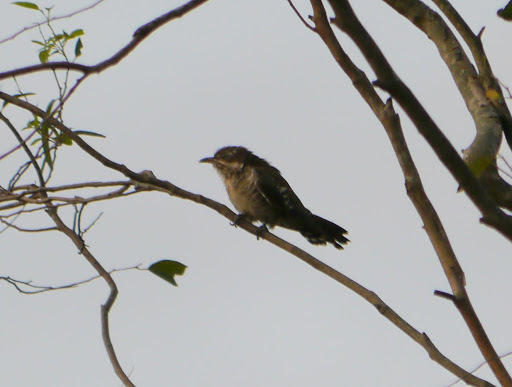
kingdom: Animalia
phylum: Chordata
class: Aves
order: Cuculiformes
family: Cuculidae
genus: Chrysococcyx
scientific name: Chrysococcyx caprius
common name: Diederik cuckoo
